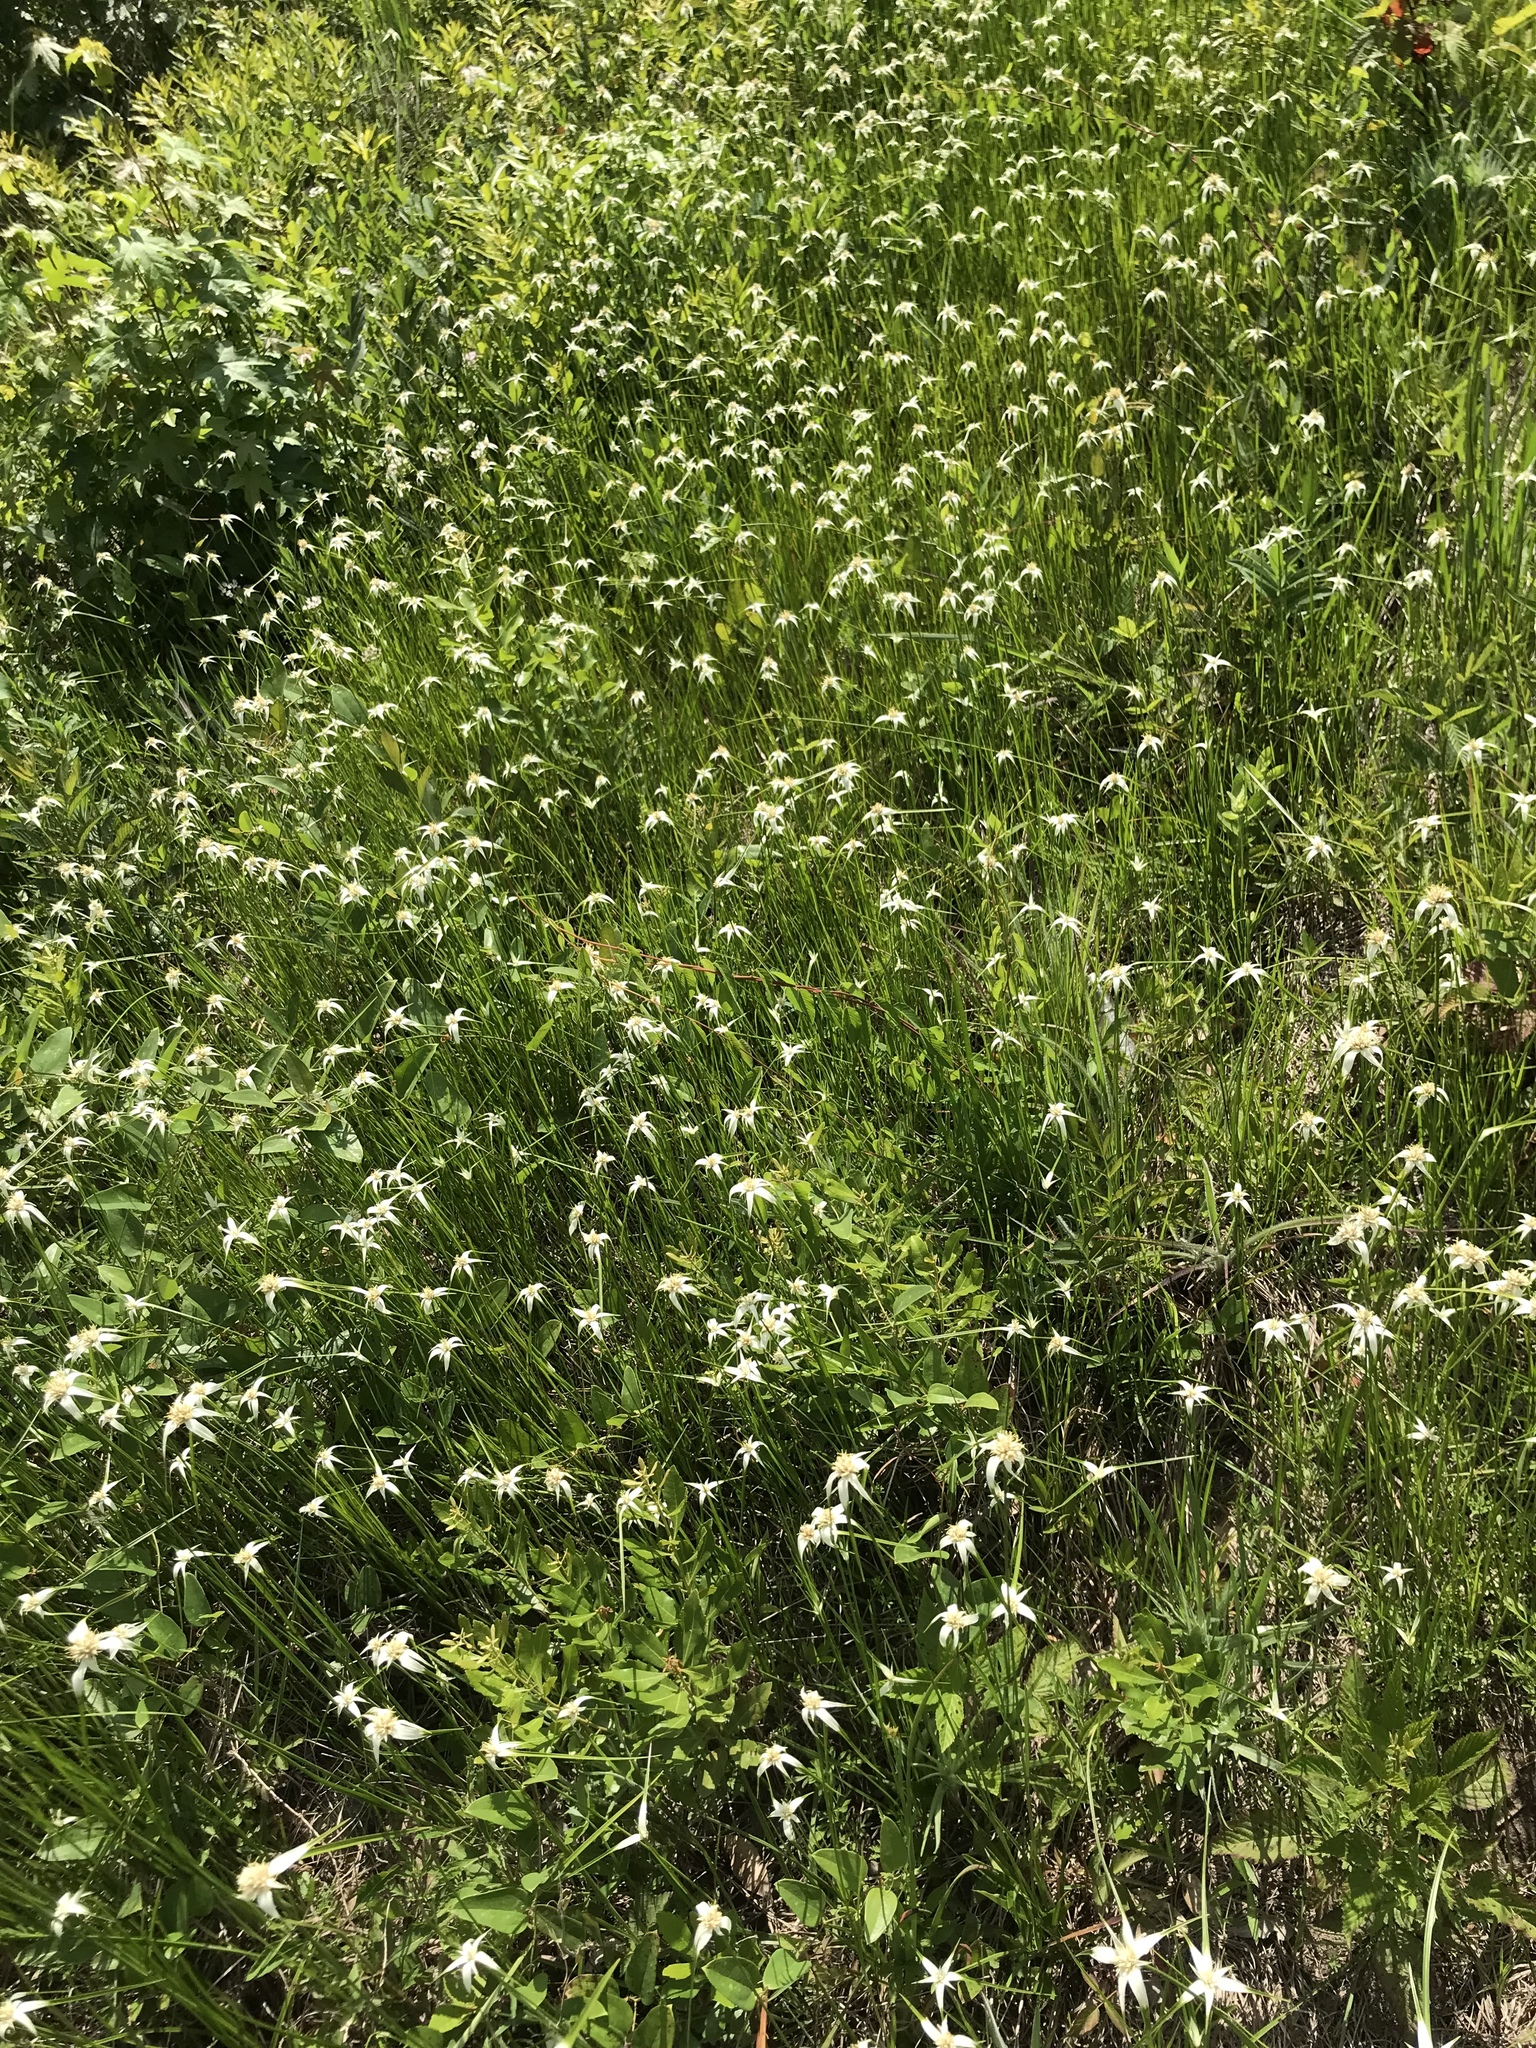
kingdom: Plantae
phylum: Tracheophyta
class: Liliopsida
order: Poales
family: Cyperaceae
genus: Rhynchospora
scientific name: Rhynchospora colorata
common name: Star sedge
